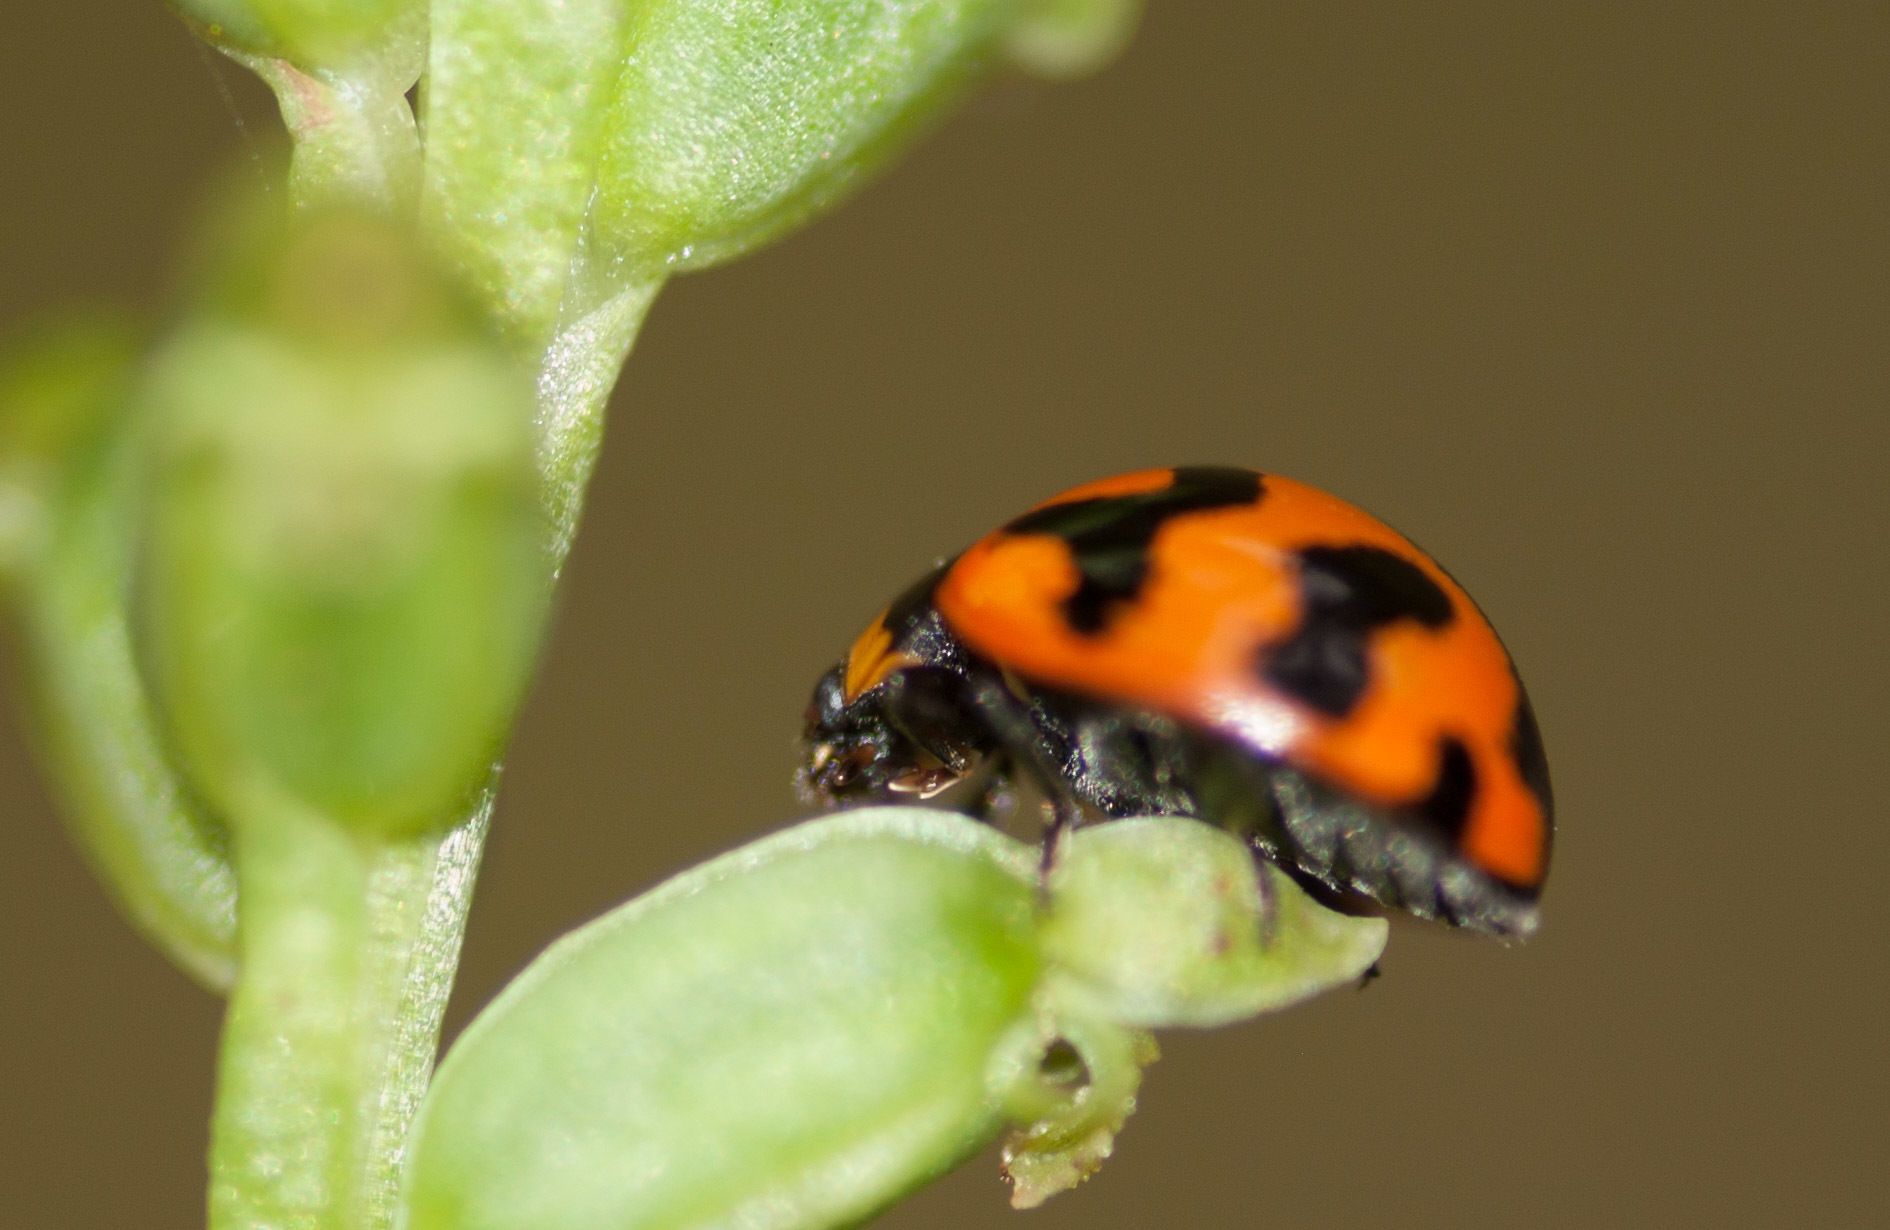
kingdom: Animalia
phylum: Arthropoda
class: Insecta
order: Coleoptera
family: Coccinellidae
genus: Coccinella
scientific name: Coccinella transversalis
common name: Transverse lady beetle
